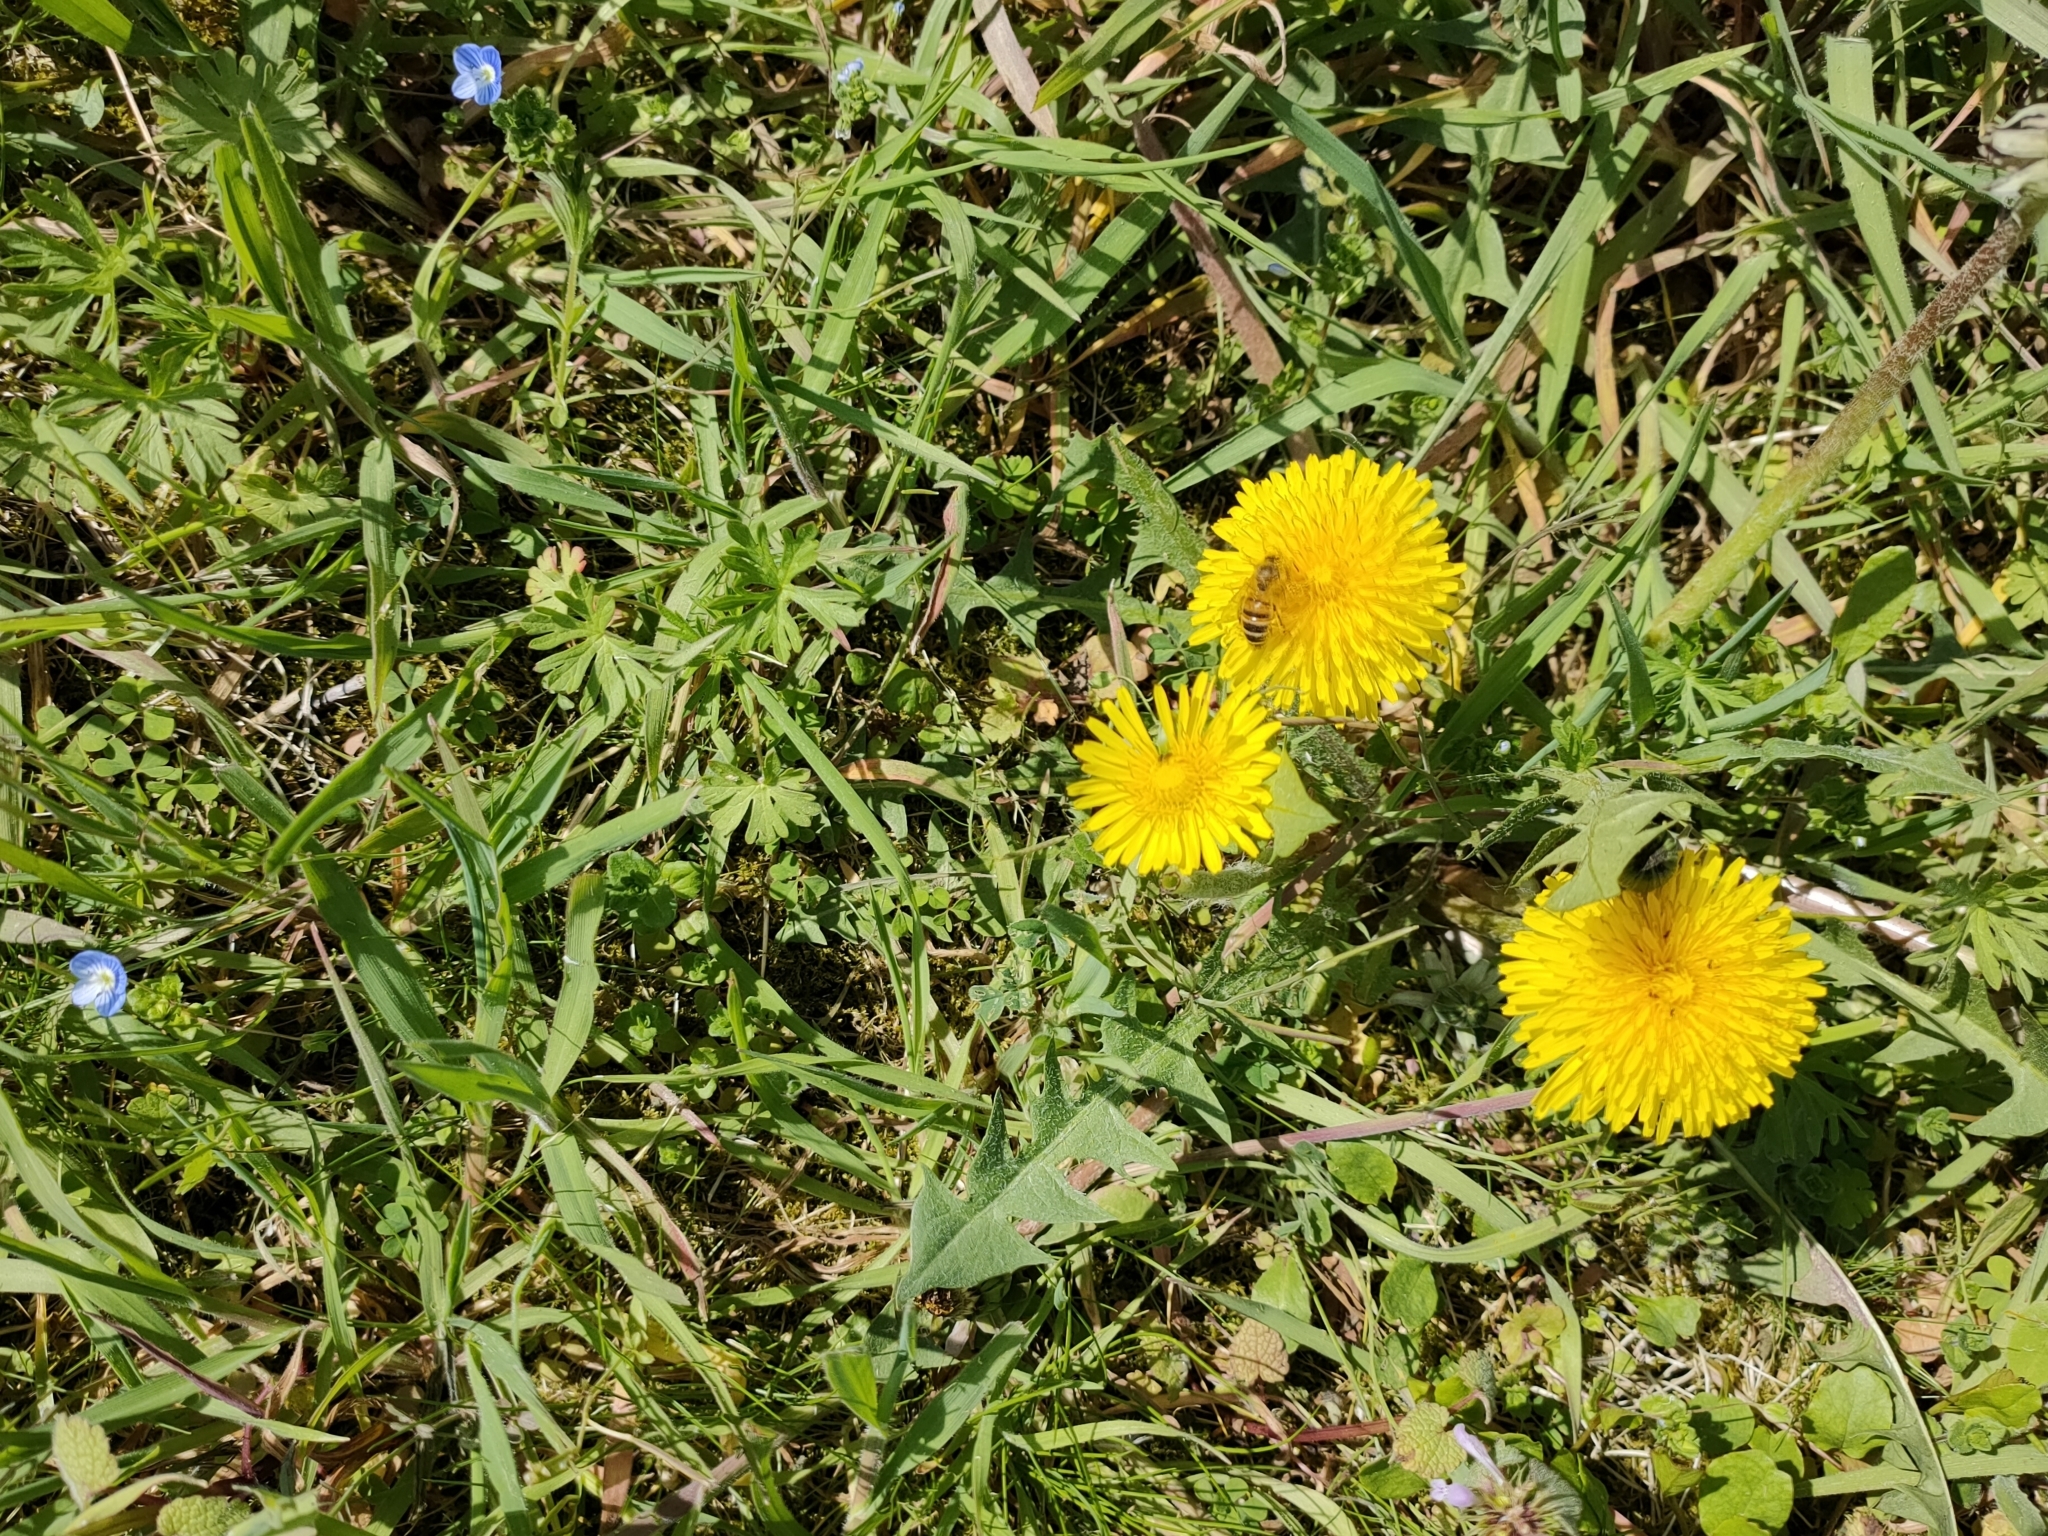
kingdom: Animalia
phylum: Arthropoda
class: Insecta
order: Hymenoptera
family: Apidae
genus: Apis
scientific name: Apis mellifera
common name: Honey bee
